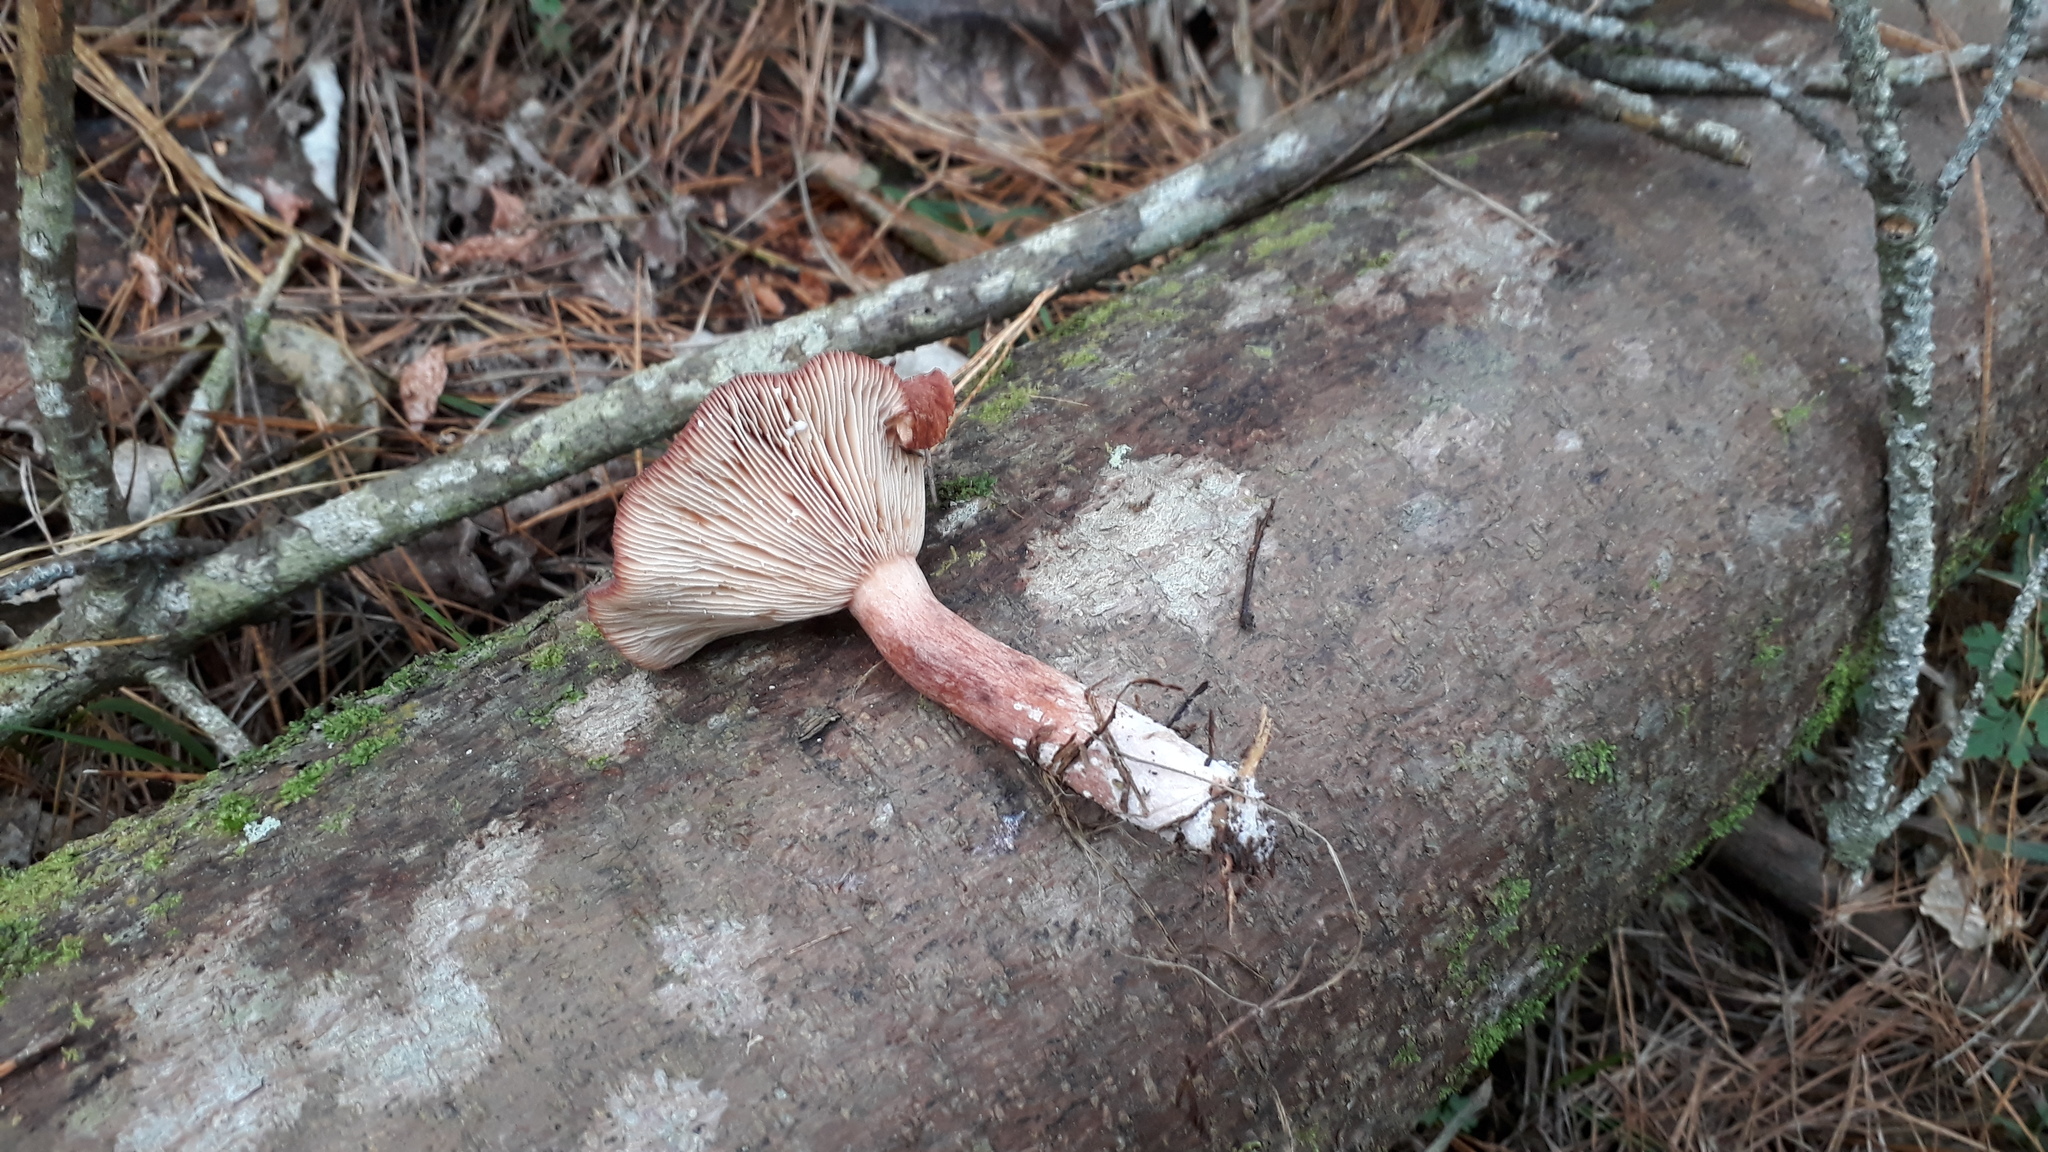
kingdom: Fungi
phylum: Basidiomycota
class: Agaricomycetes
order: Russulales
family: Russulaceae
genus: Lactarius
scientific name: Lactarius rufus
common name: Rufous milk-cap
